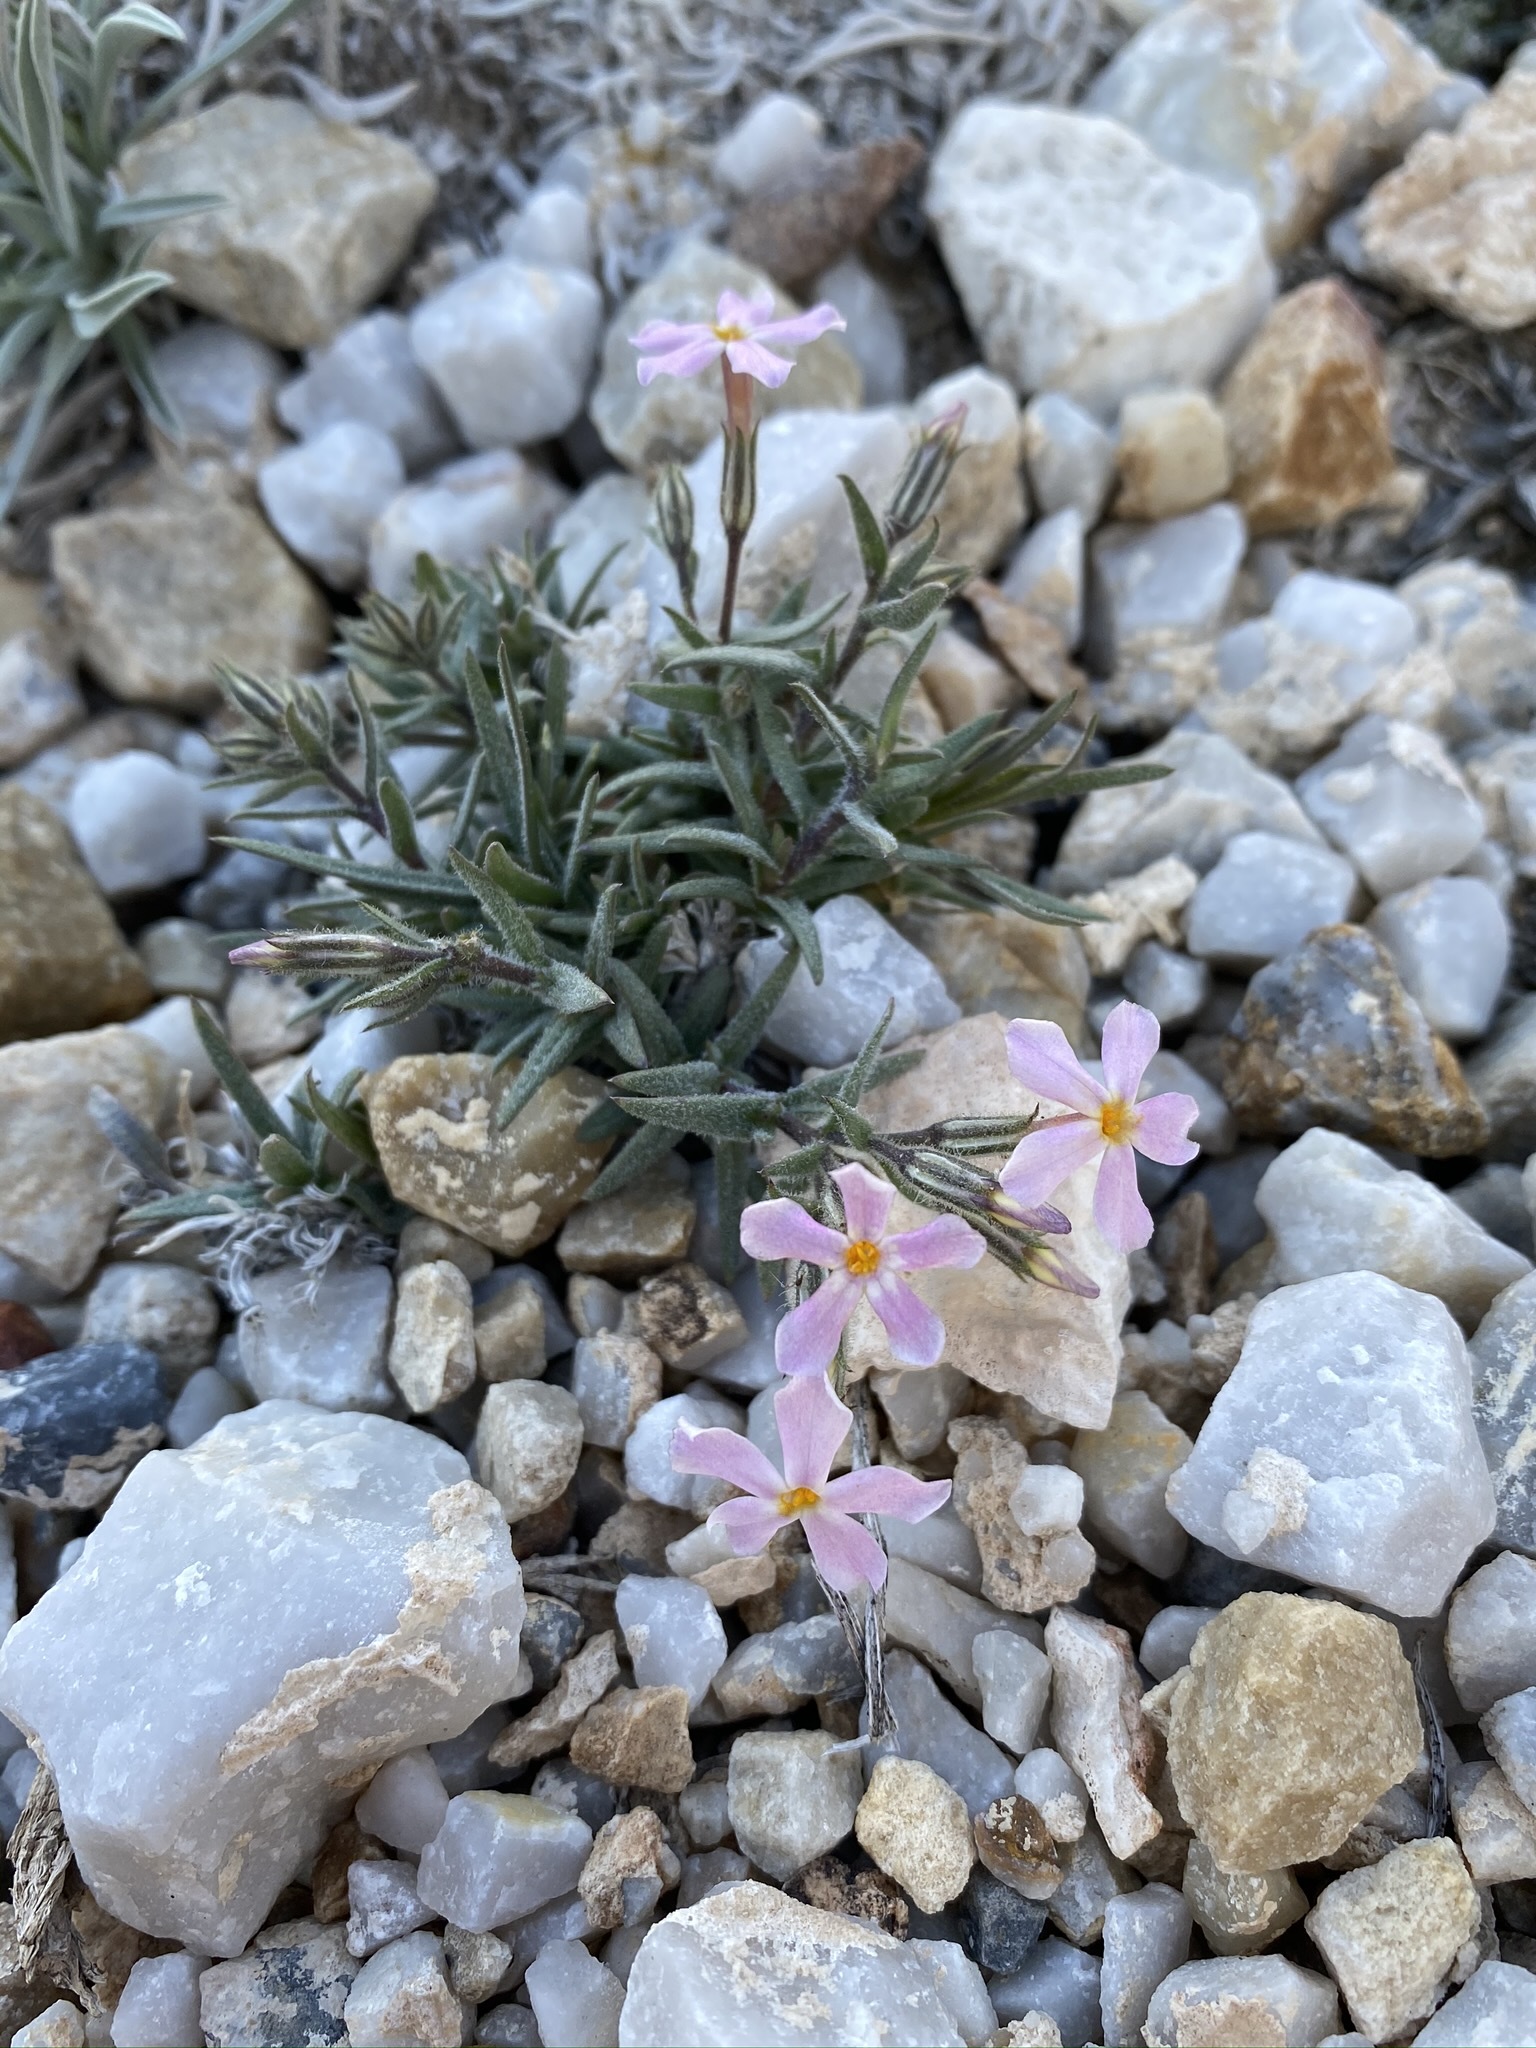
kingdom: Plantae
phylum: Tracheophyta
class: Magnoliopsida
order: Ericales
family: Polemoniaceae
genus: Phlox
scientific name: Phlox longifolia
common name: Longleaf phlox
